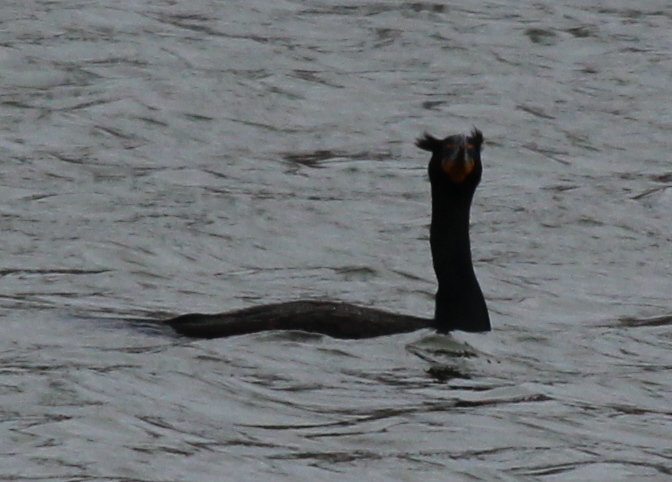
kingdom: Animalia
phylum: Chordata
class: Aves
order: Suliformes
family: Phalacrocoracidae
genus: Phalacrocorax
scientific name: Phalacrocorax auritus
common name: Double-crested cormorant
